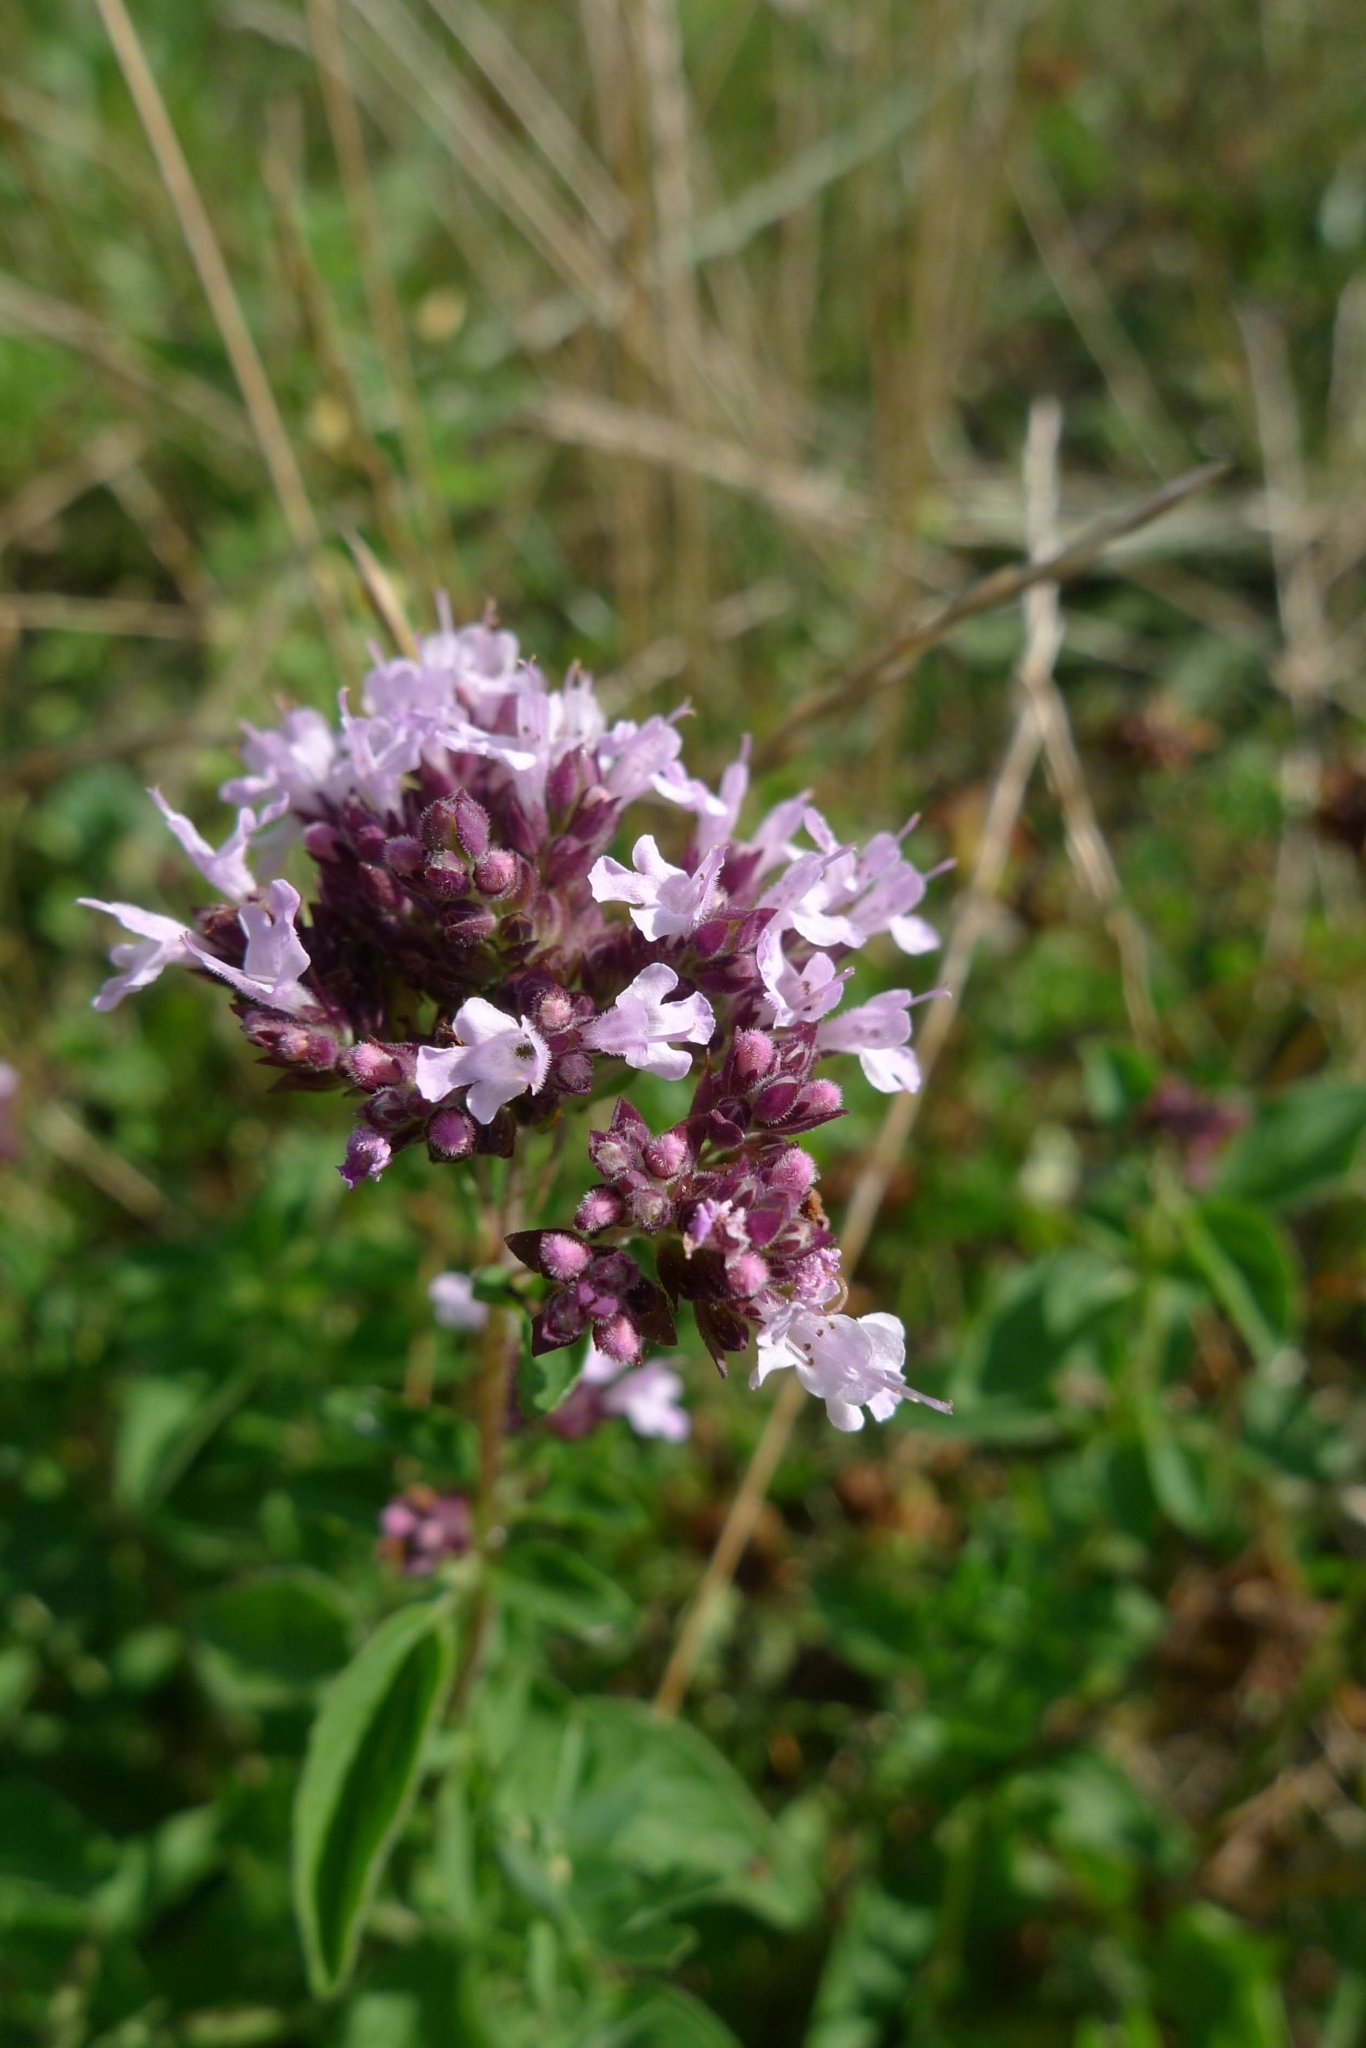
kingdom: Plantae
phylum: Tracheophyta
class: Magnoliopsida
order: Lamiales
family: Lamiaceae
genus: Origanum
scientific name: Origanum vulgare
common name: Wild marjoram
